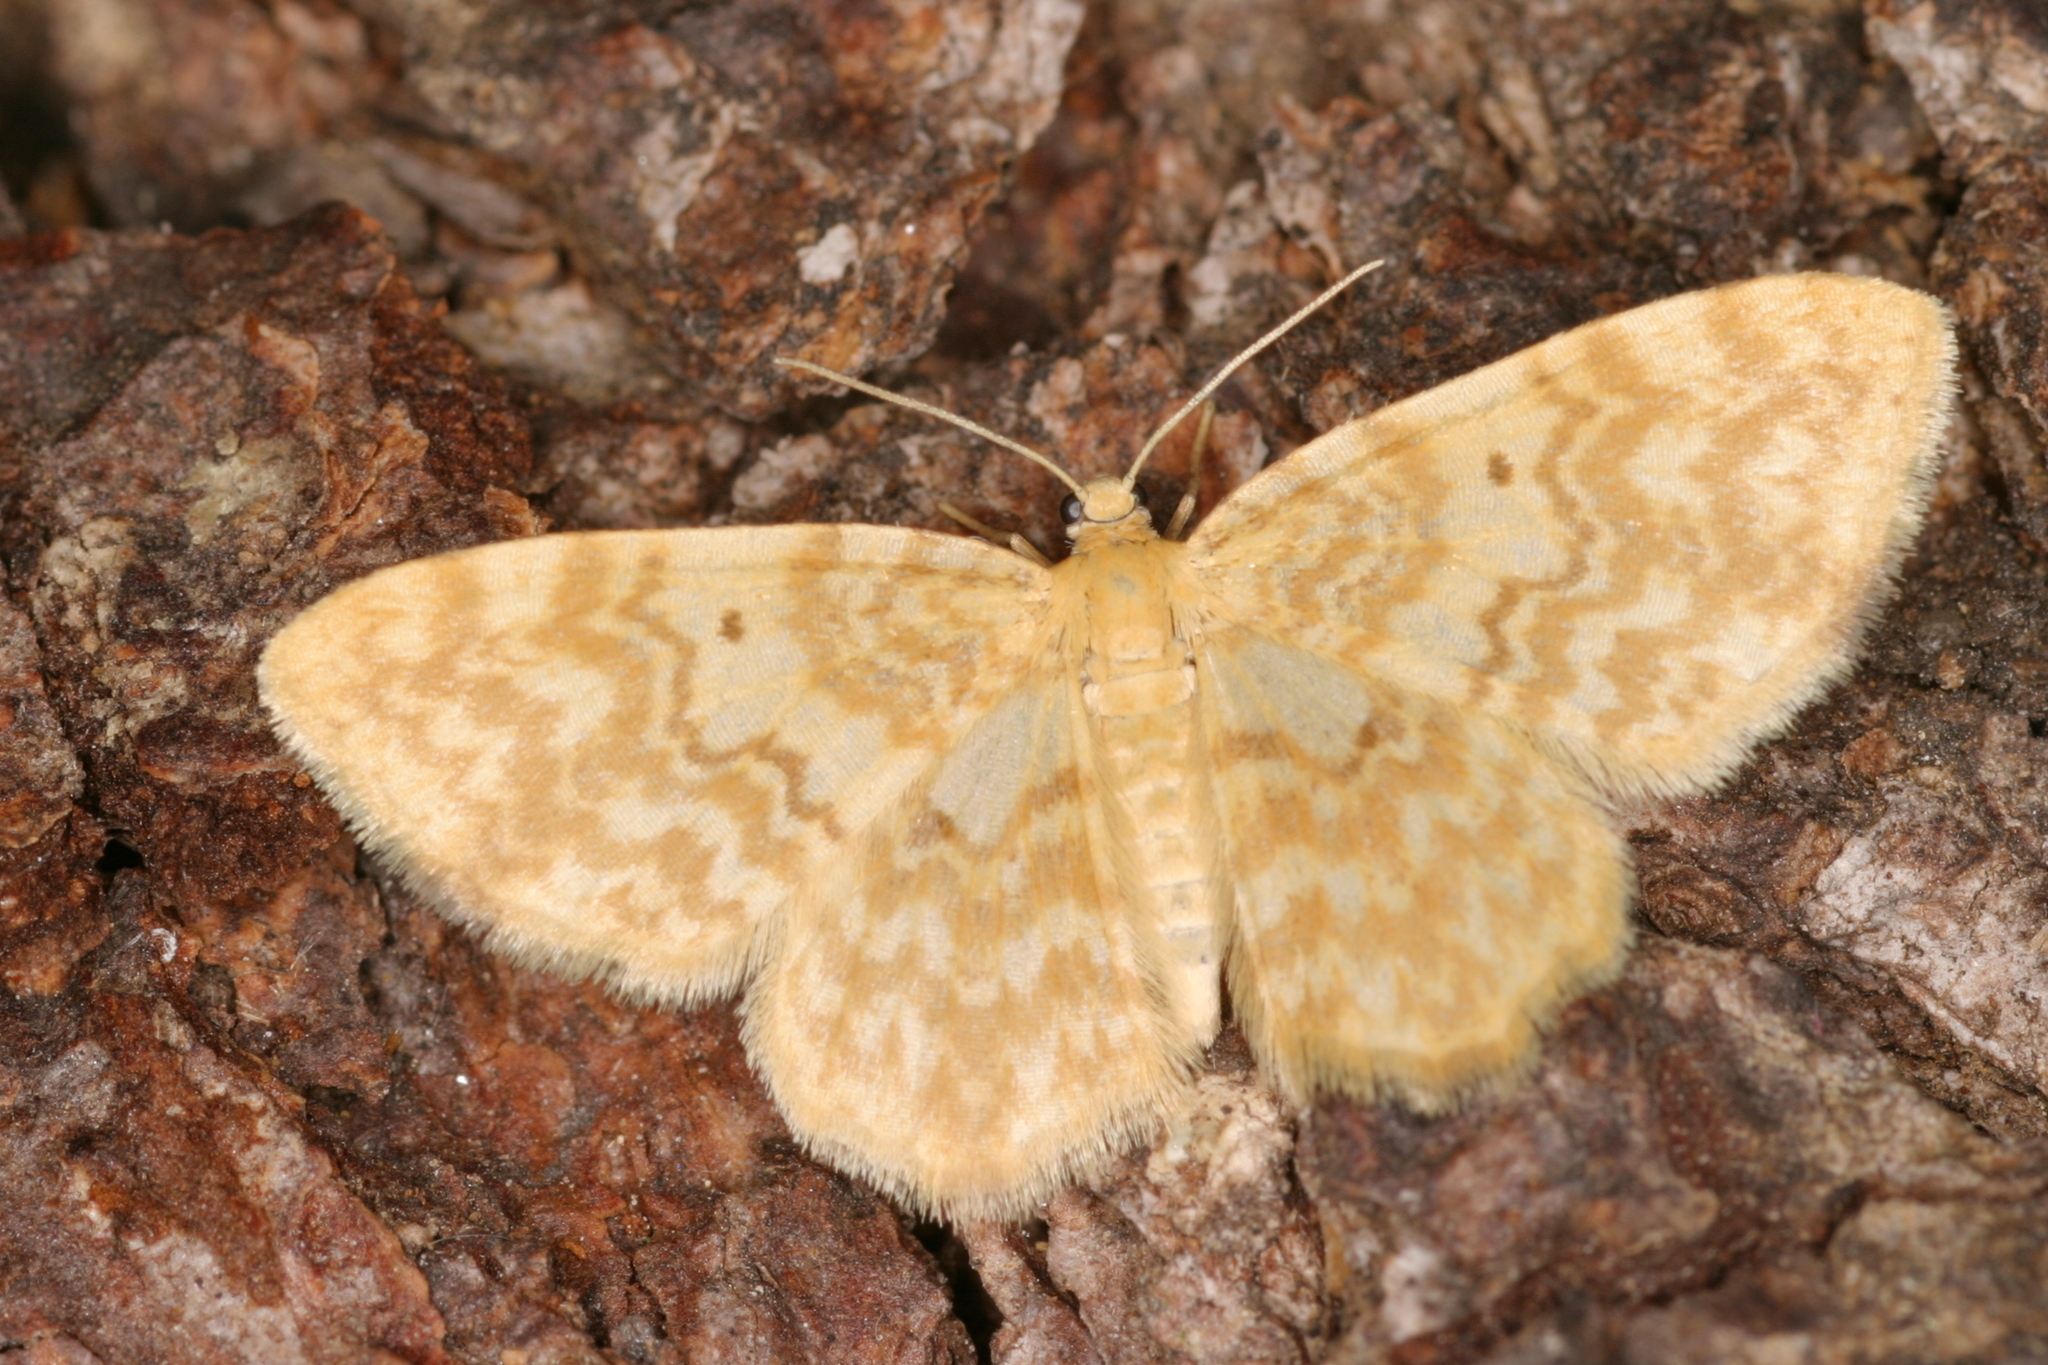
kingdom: Animalia
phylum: Arthropoda
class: Insecta
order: Lepidoptera
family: Geometridae
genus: Hydrelia
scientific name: Hydrelia flammeolaria
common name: Small yellow wave
